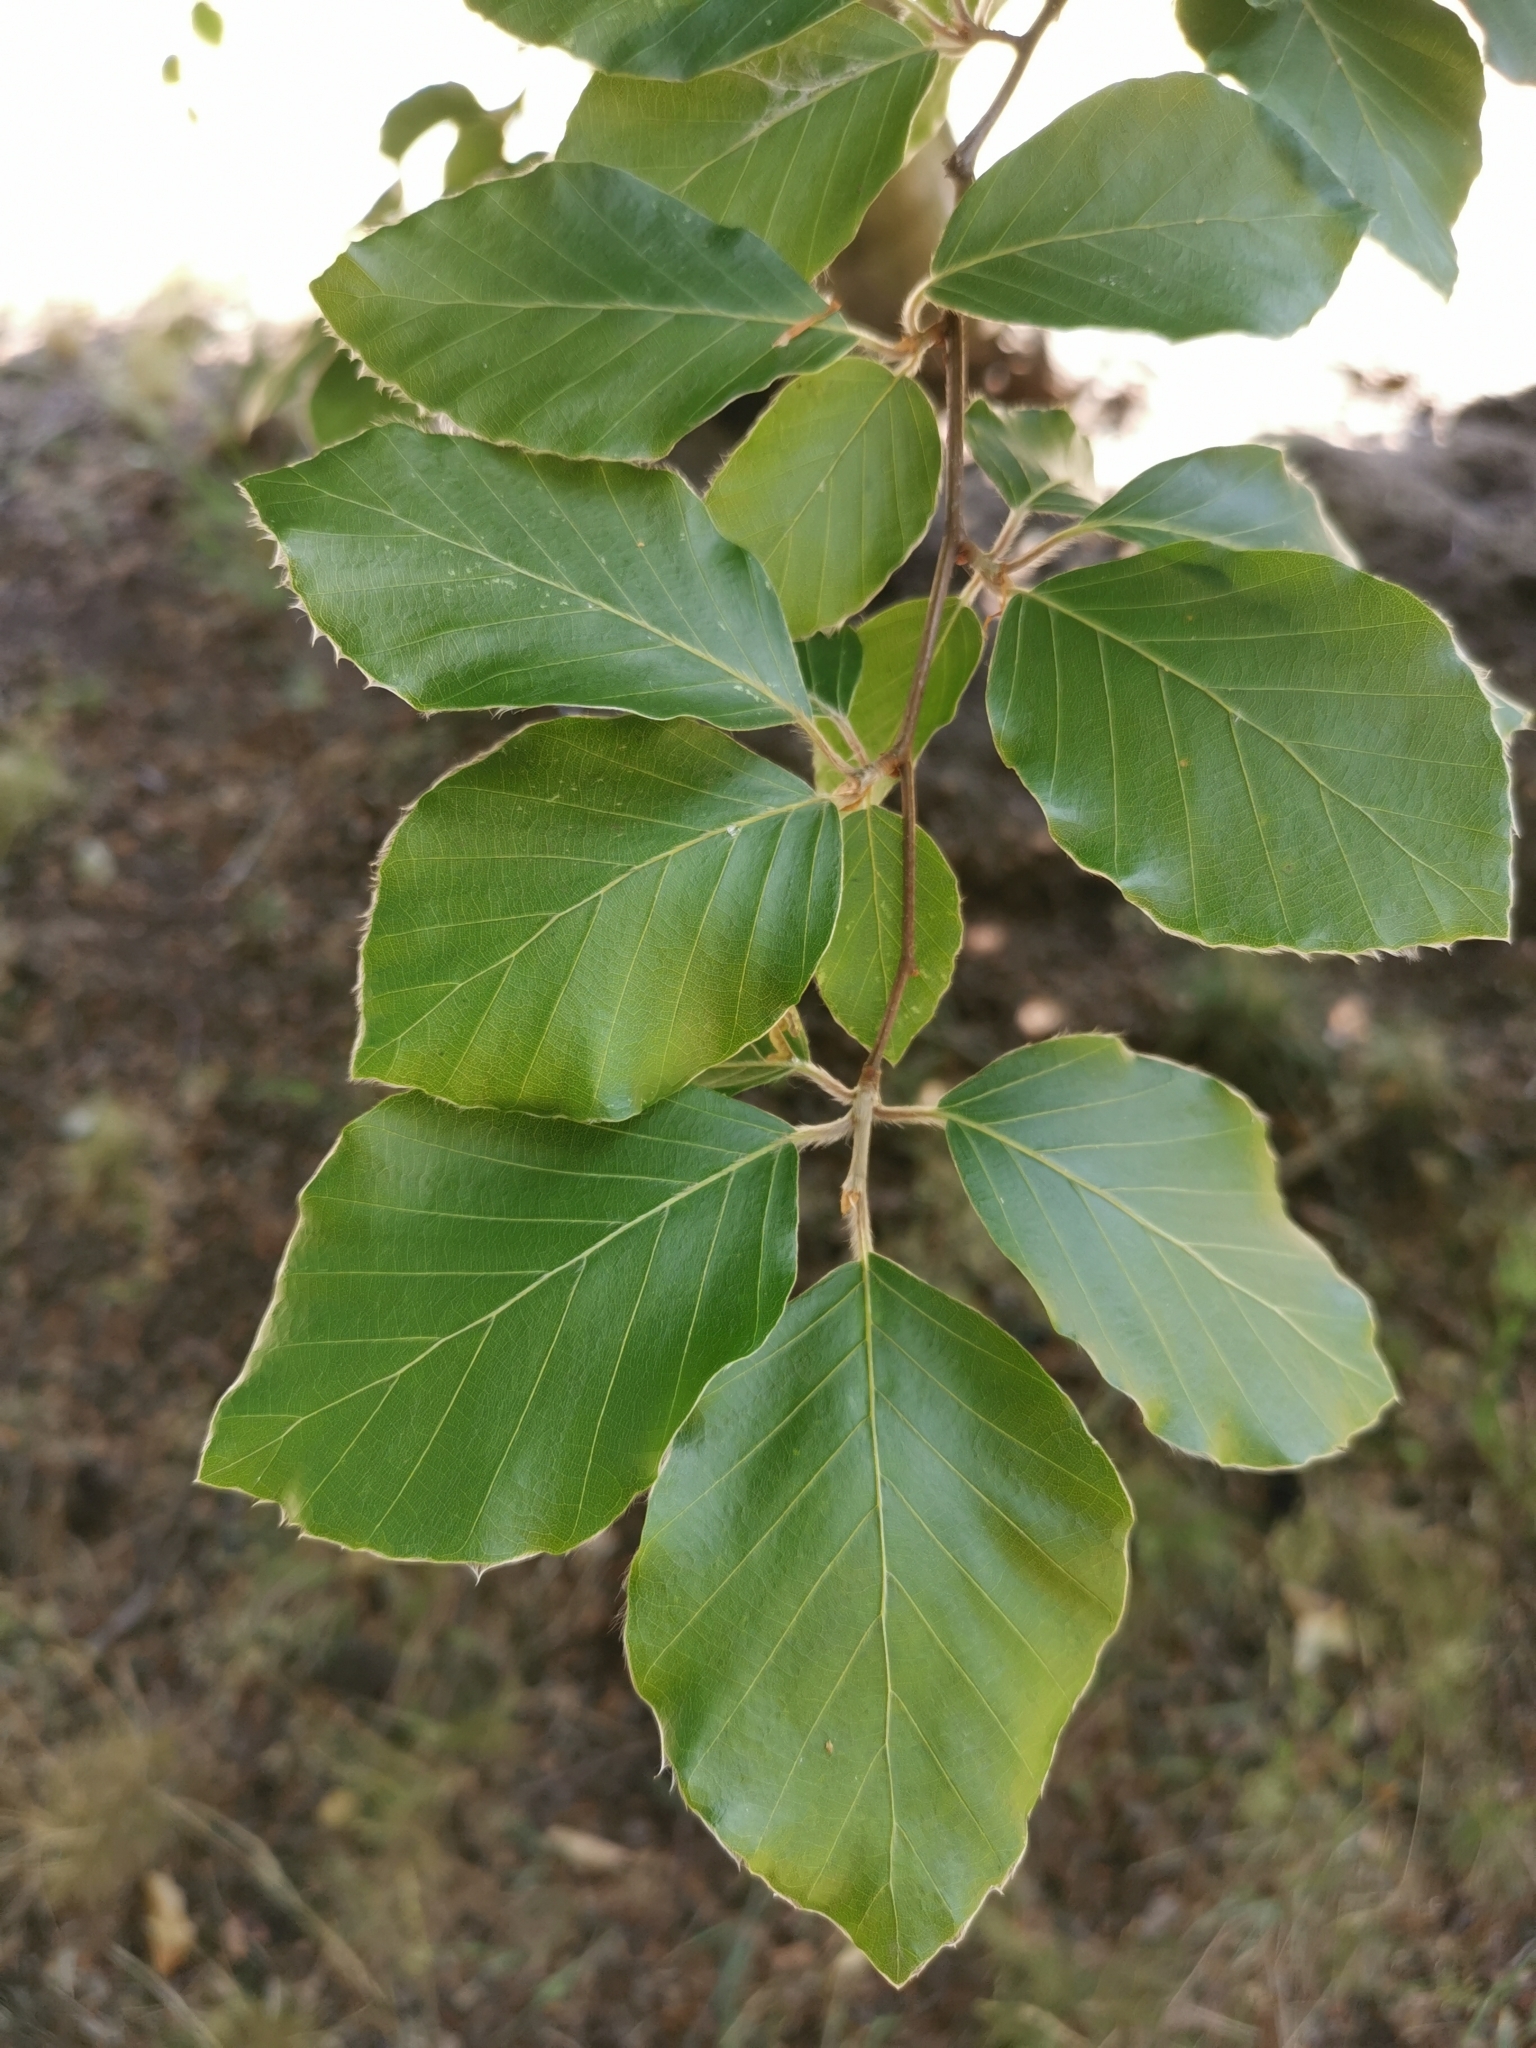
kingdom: Plantae
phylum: Tracheophyta
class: Magnoliopsida
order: Fagales
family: Fagaceae
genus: Fagus
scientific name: Fagus sylvatica
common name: Beech
